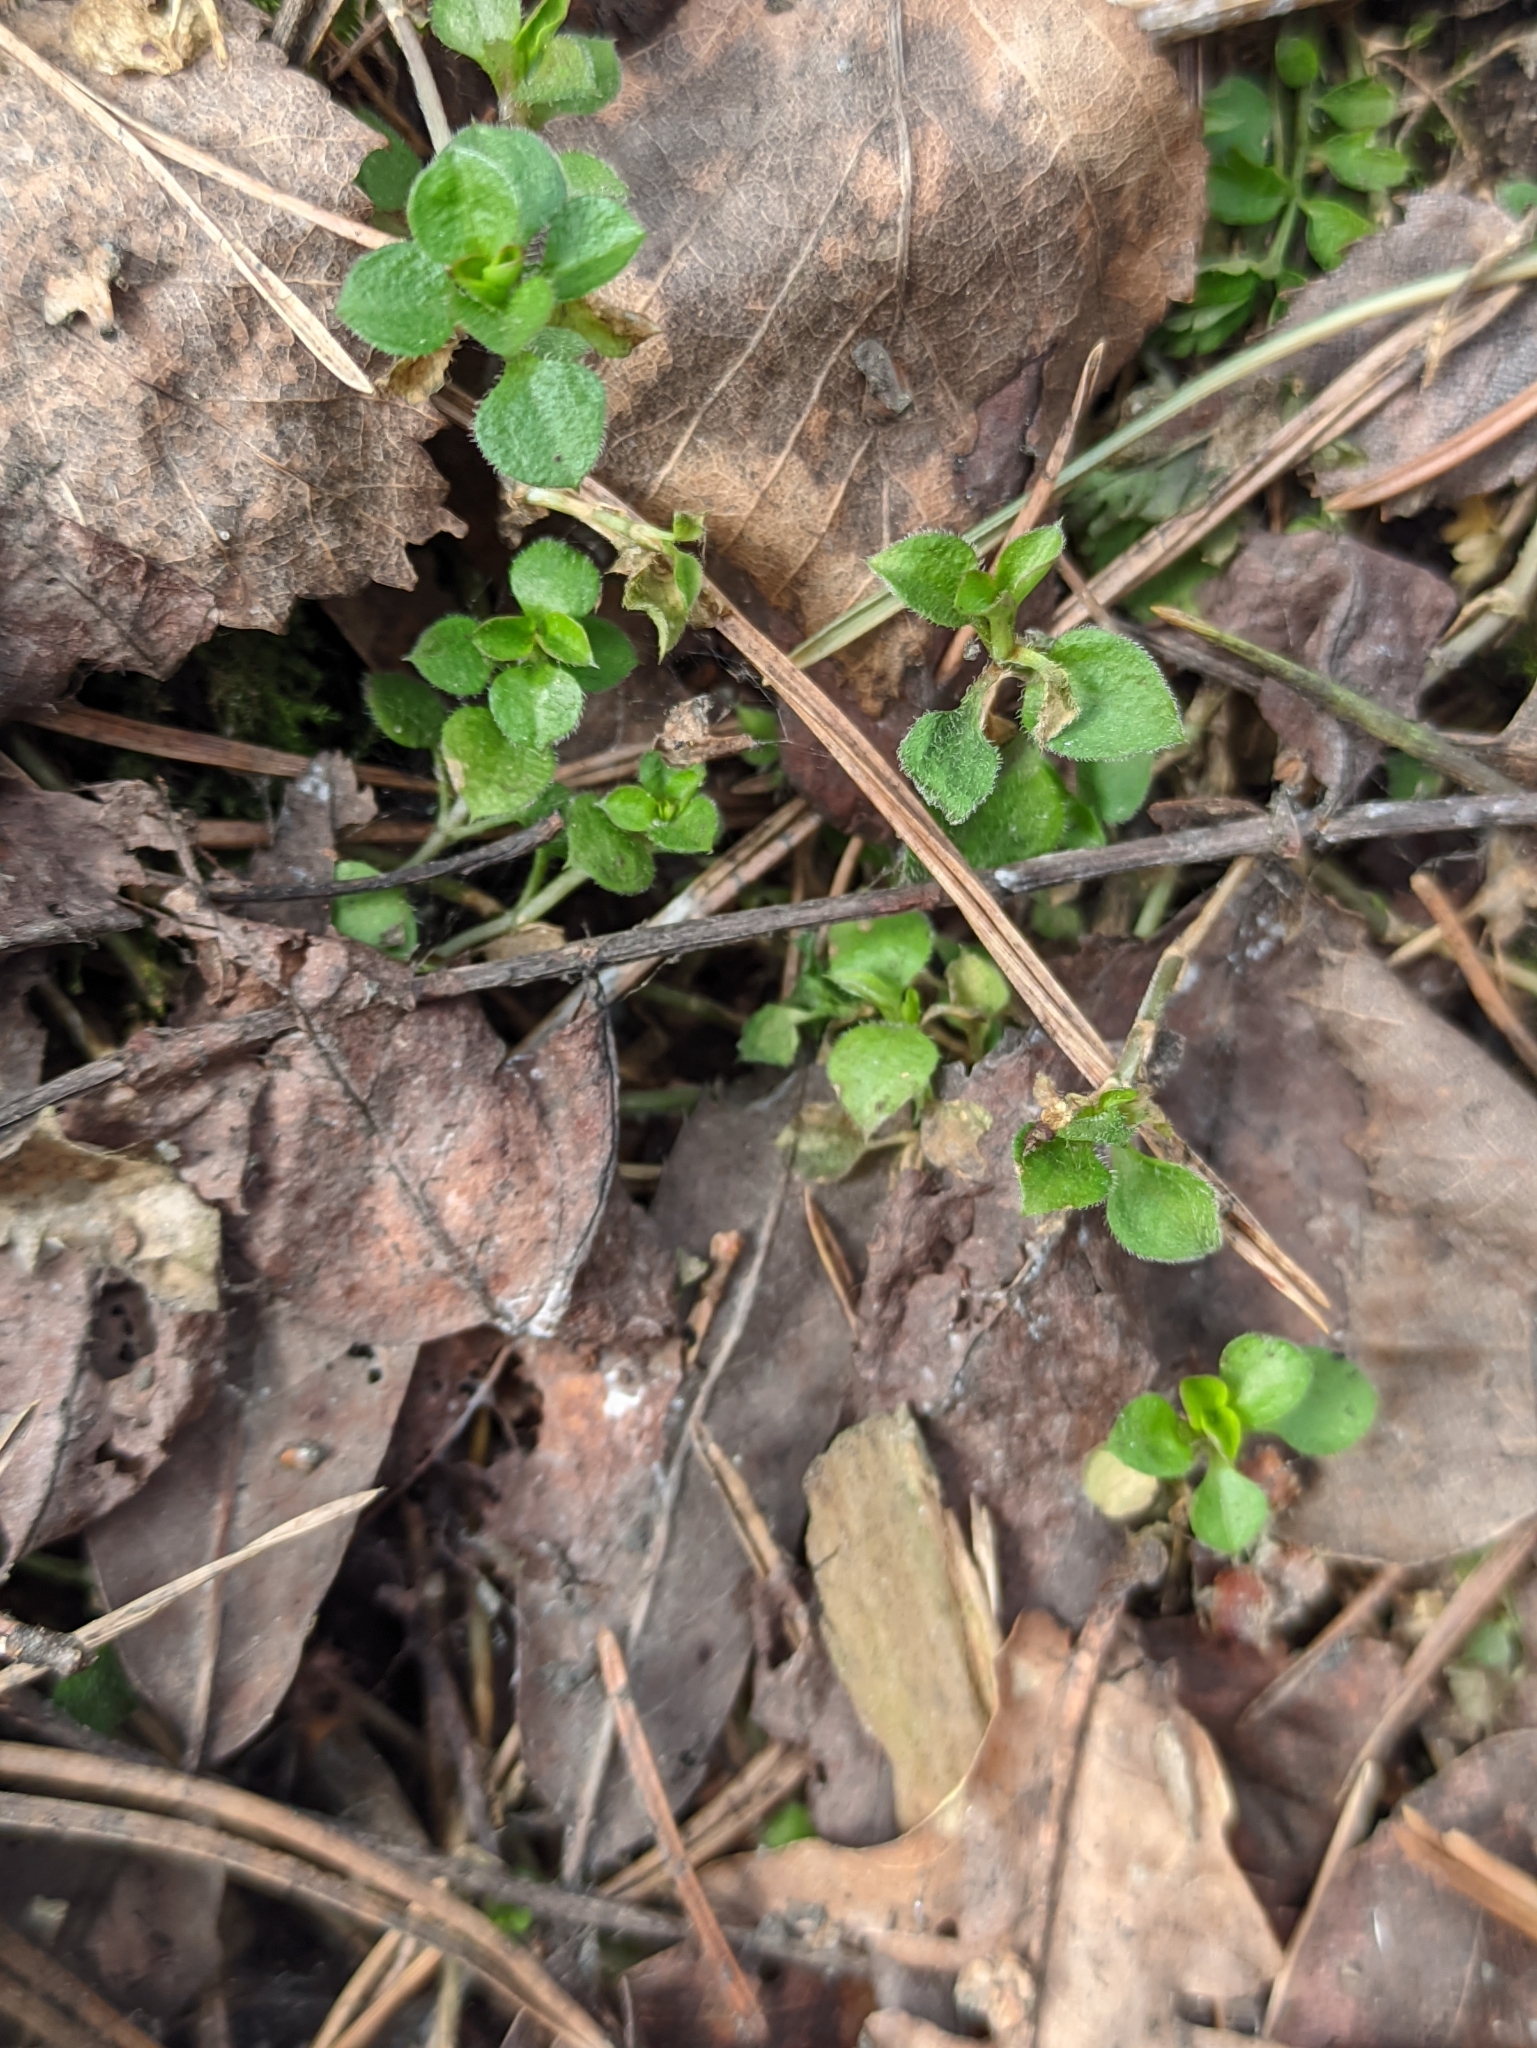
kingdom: Plantae
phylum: Tracheophyta
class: Magnoliopsida
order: Caryophyllales
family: Caryophyllaceae
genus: Moehringia
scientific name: Moehringia trinervia
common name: Three-nerved sandwort
